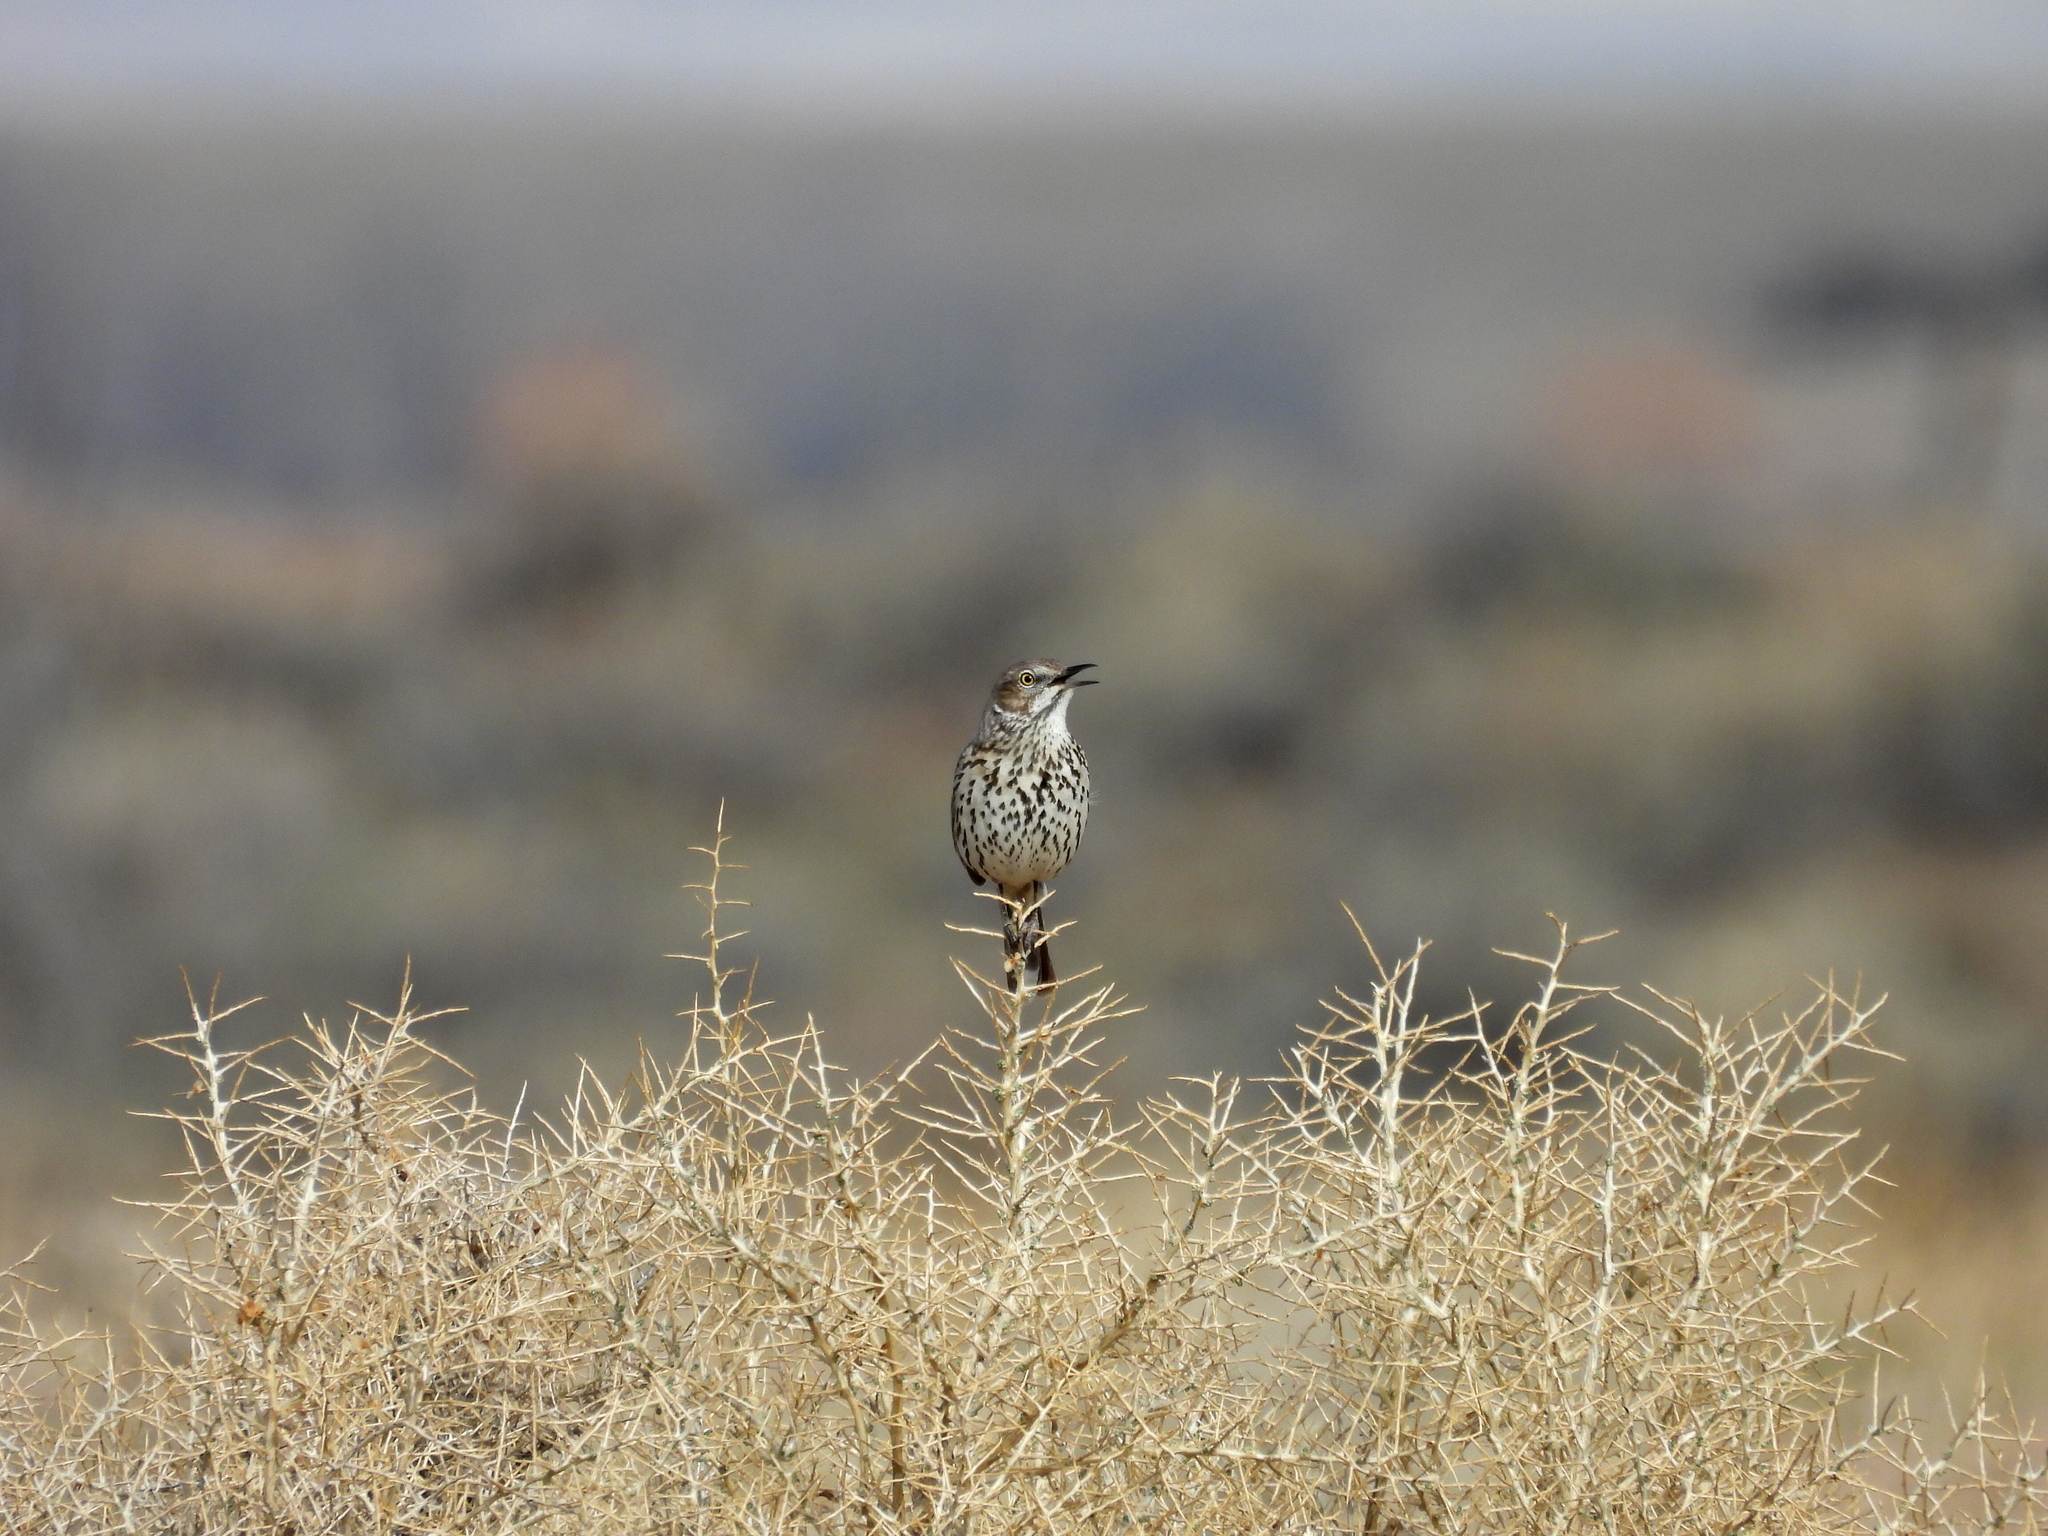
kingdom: Animalia
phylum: Chordata
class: Aves
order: Passeriformes
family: Mimidae
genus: Oreoscoptes
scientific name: Oreoscoptes montanus
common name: Sage thrasher
